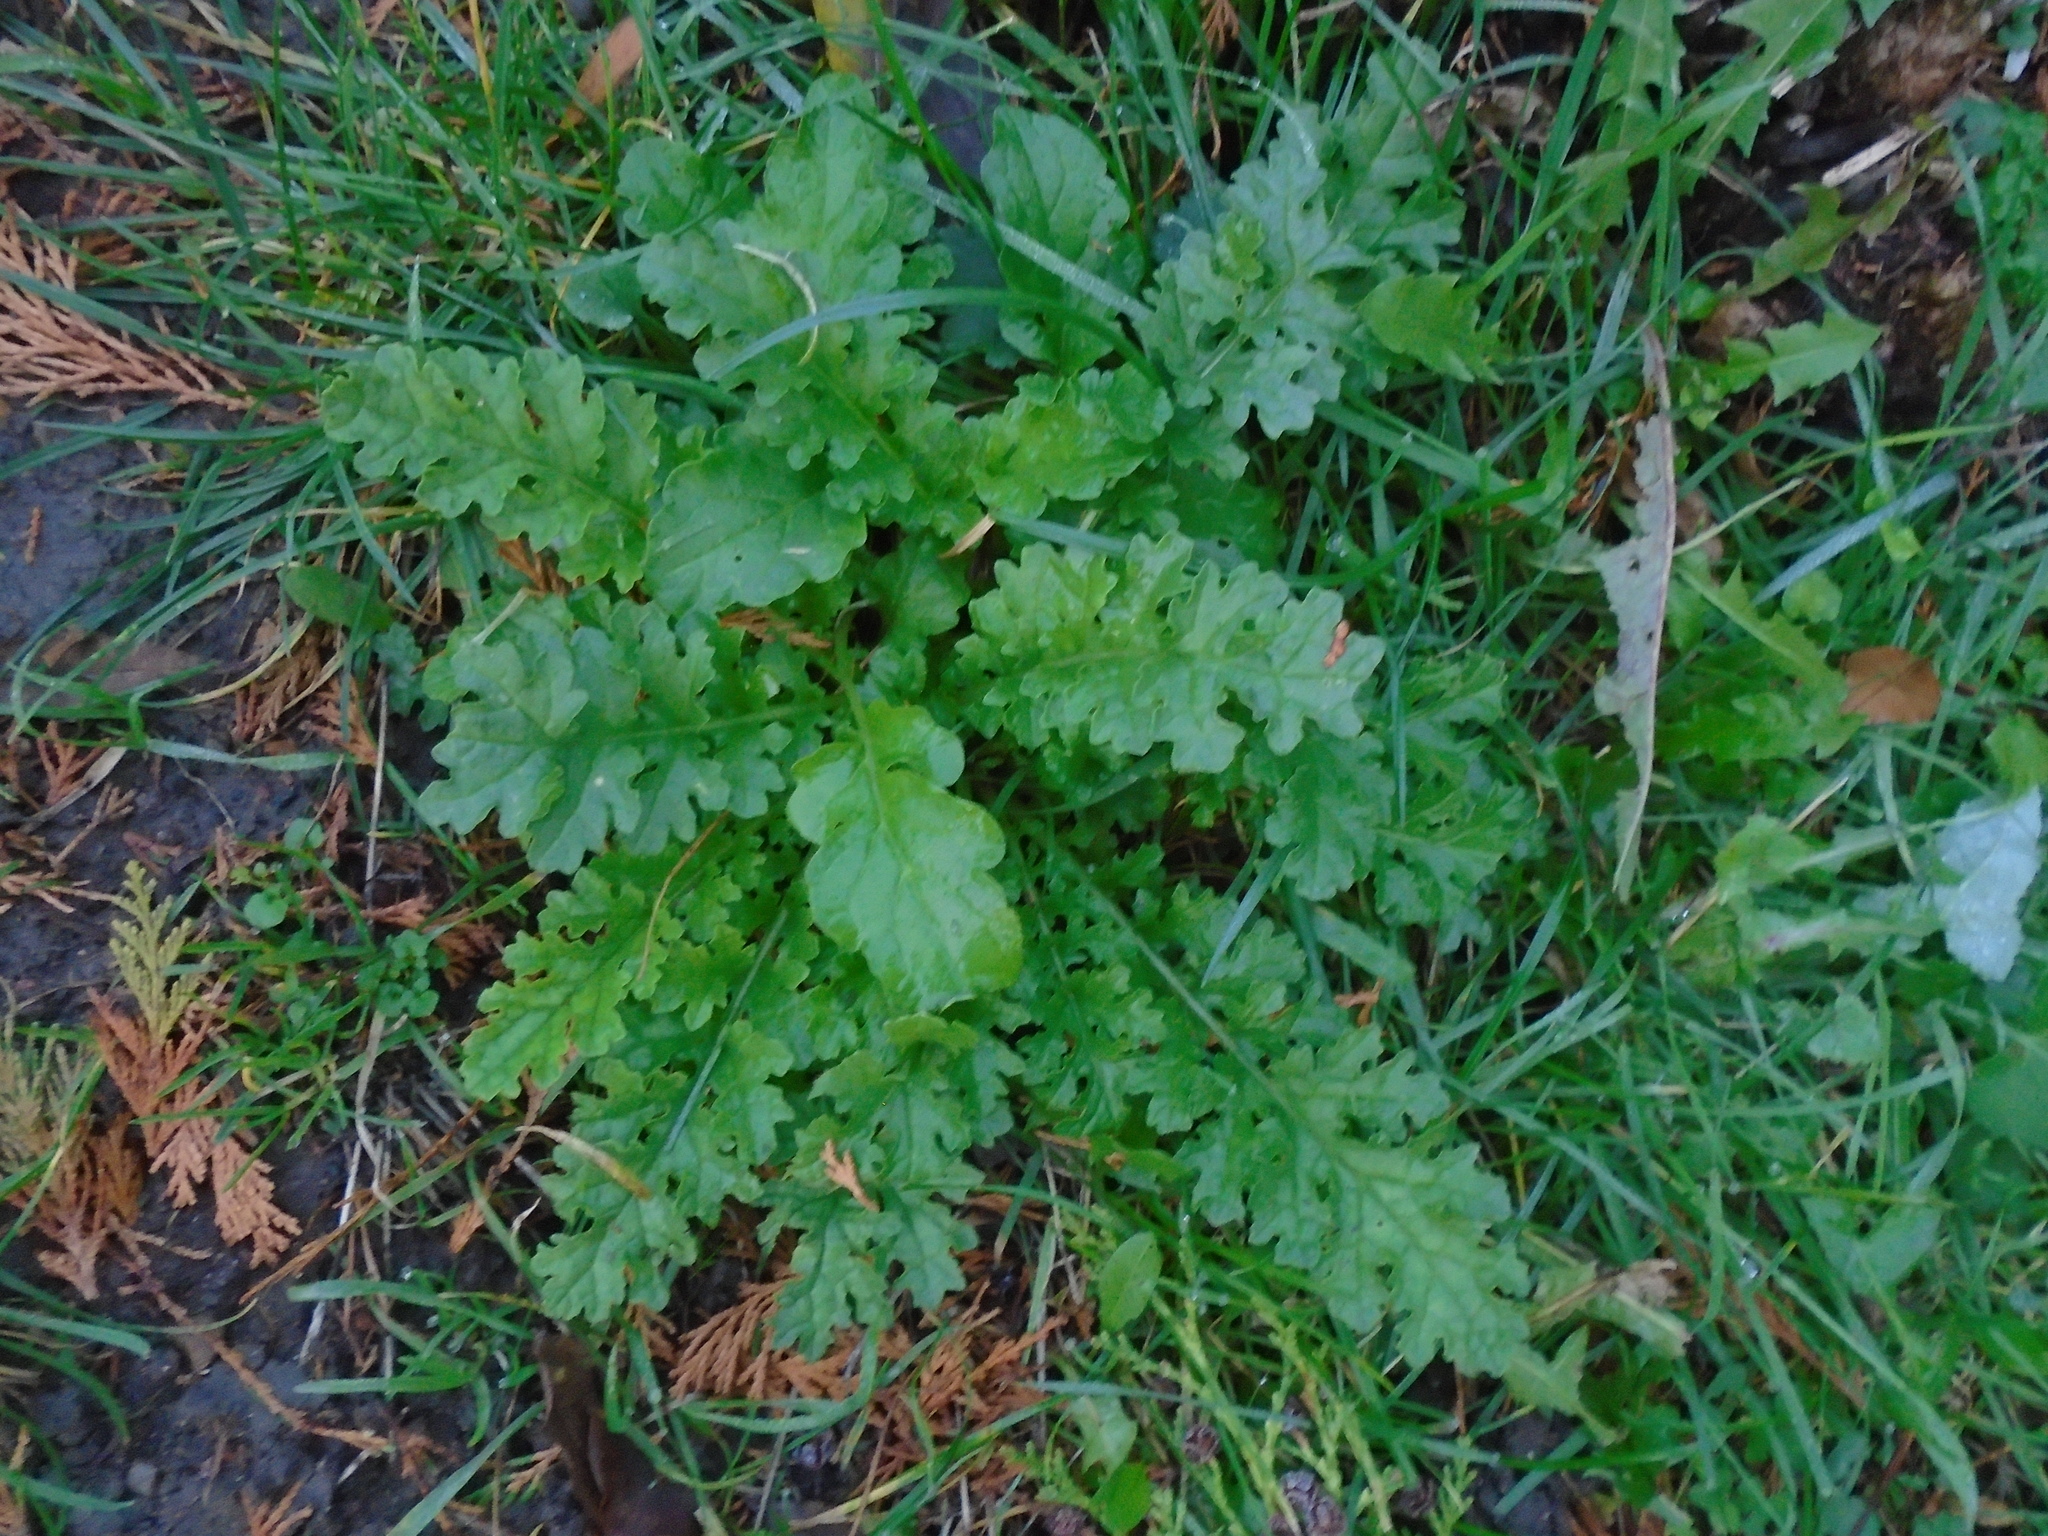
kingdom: Plantae
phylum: Tracheophyta
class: Magnoliopsida
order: Asterales
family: Asteraceae
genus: Jacobaea
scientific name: Jacobaea vulgaris
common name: Stinking willie
